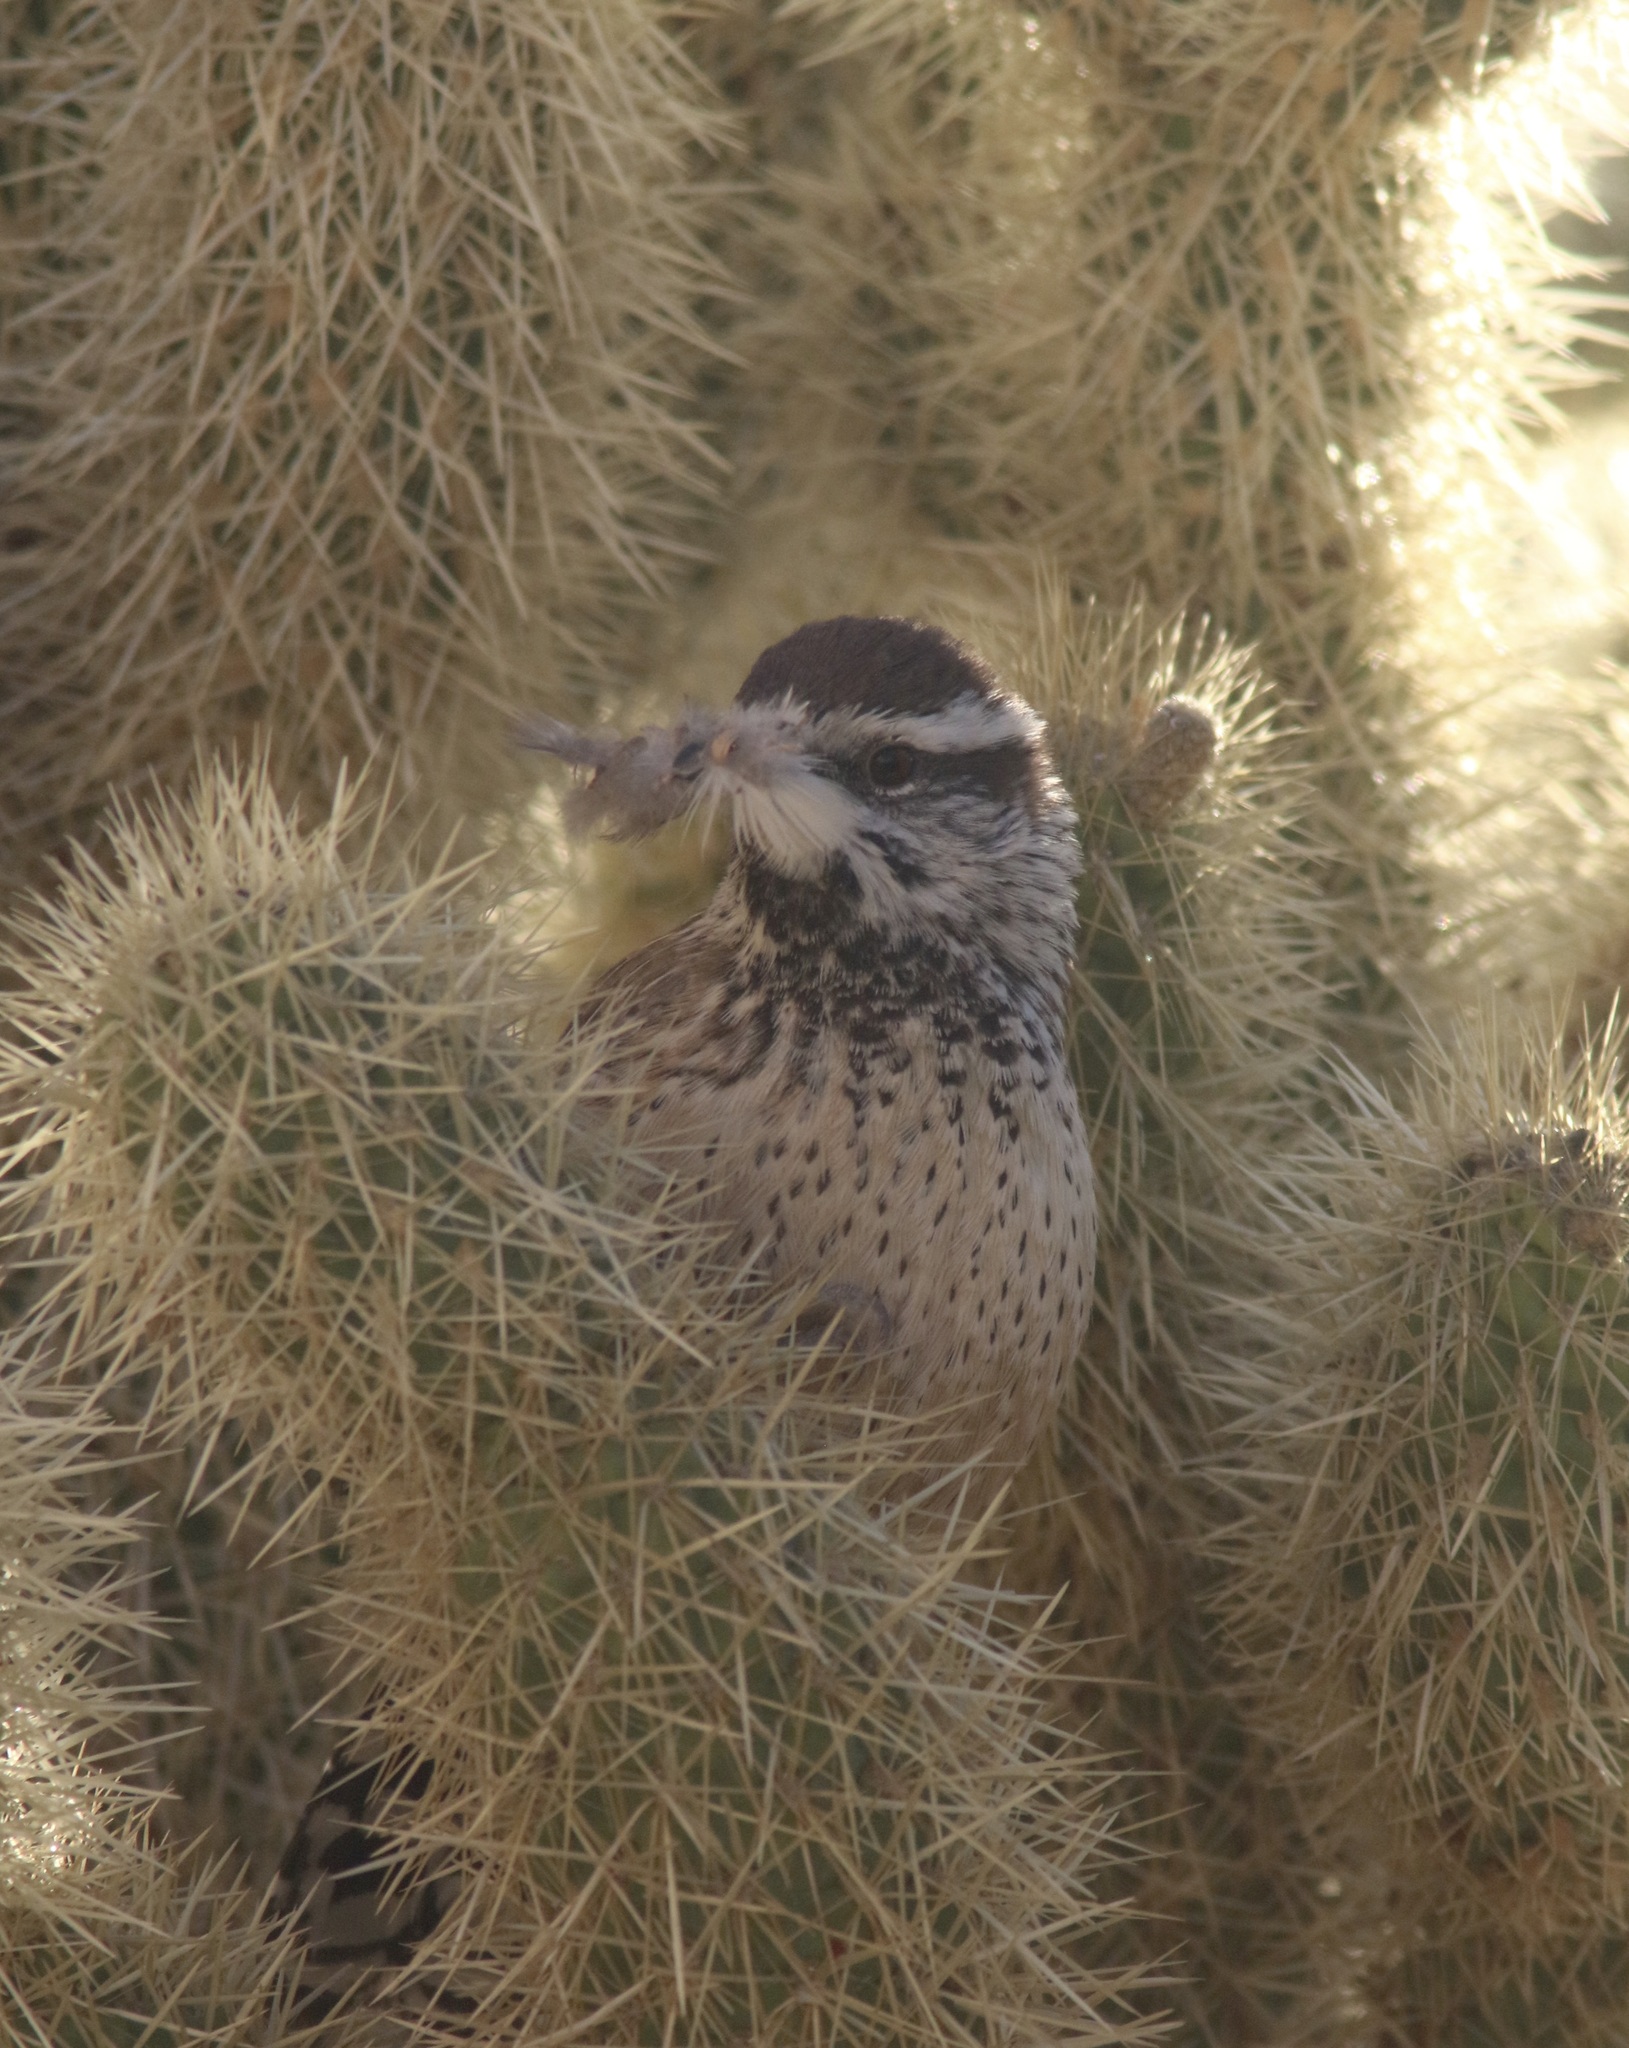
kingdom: Animalia
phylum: Chordata
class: Aves
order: Passeriformes
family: Troglodytidae
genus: Campylorhynchus
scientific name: Campylorhynchus brunneicapillus
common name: Cactus wren
